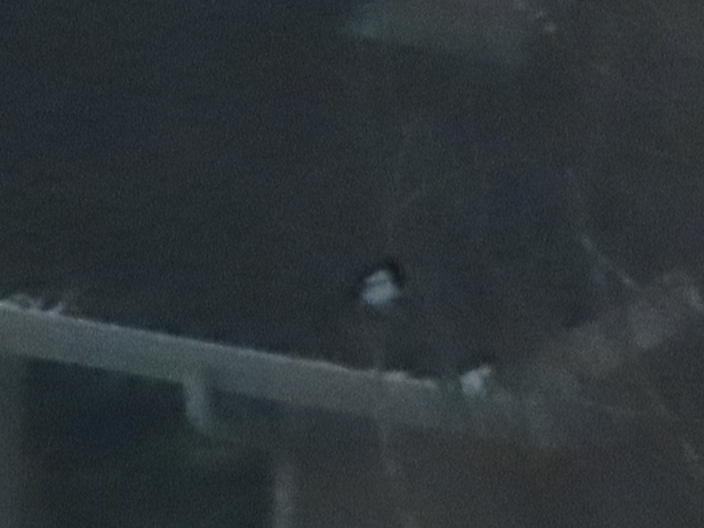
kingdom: Animalia
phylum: Chordata
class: Aves
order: Passeriformes
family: Corvidae
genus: Pica
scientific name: Pica hudsonia
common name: Black-billed magpie
